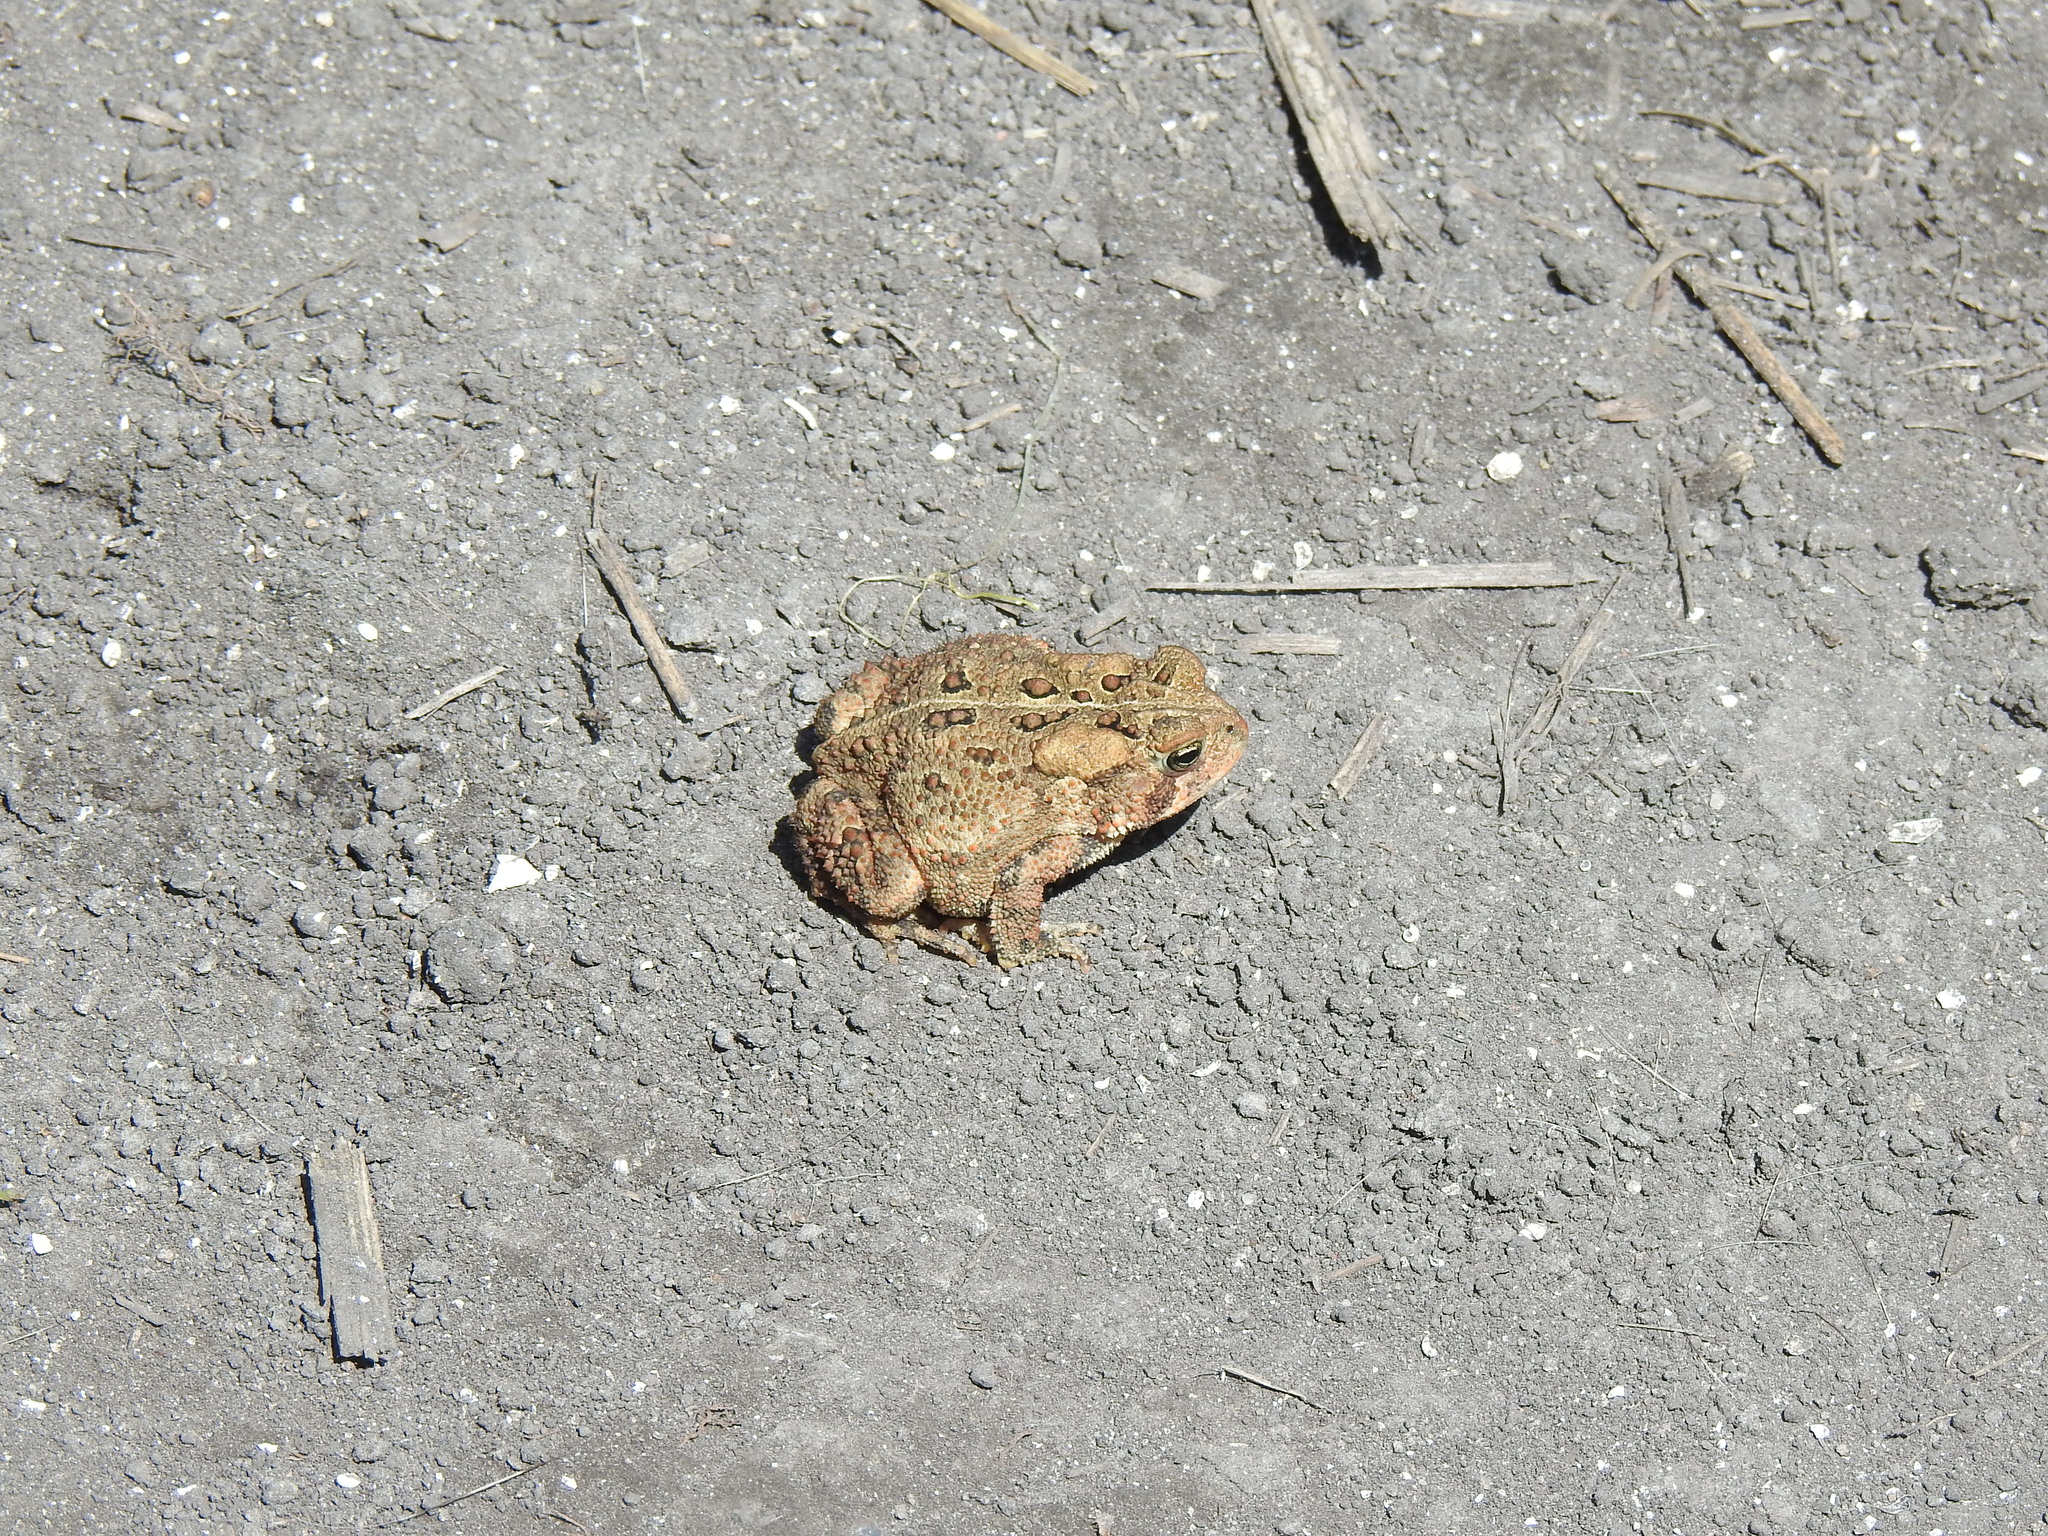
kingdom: Animalia
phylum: Chordata
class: Amphibia
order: Anura
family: Bufonidae
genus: Anaxyrus
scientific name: Anaxyrus americanus
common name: American toad
